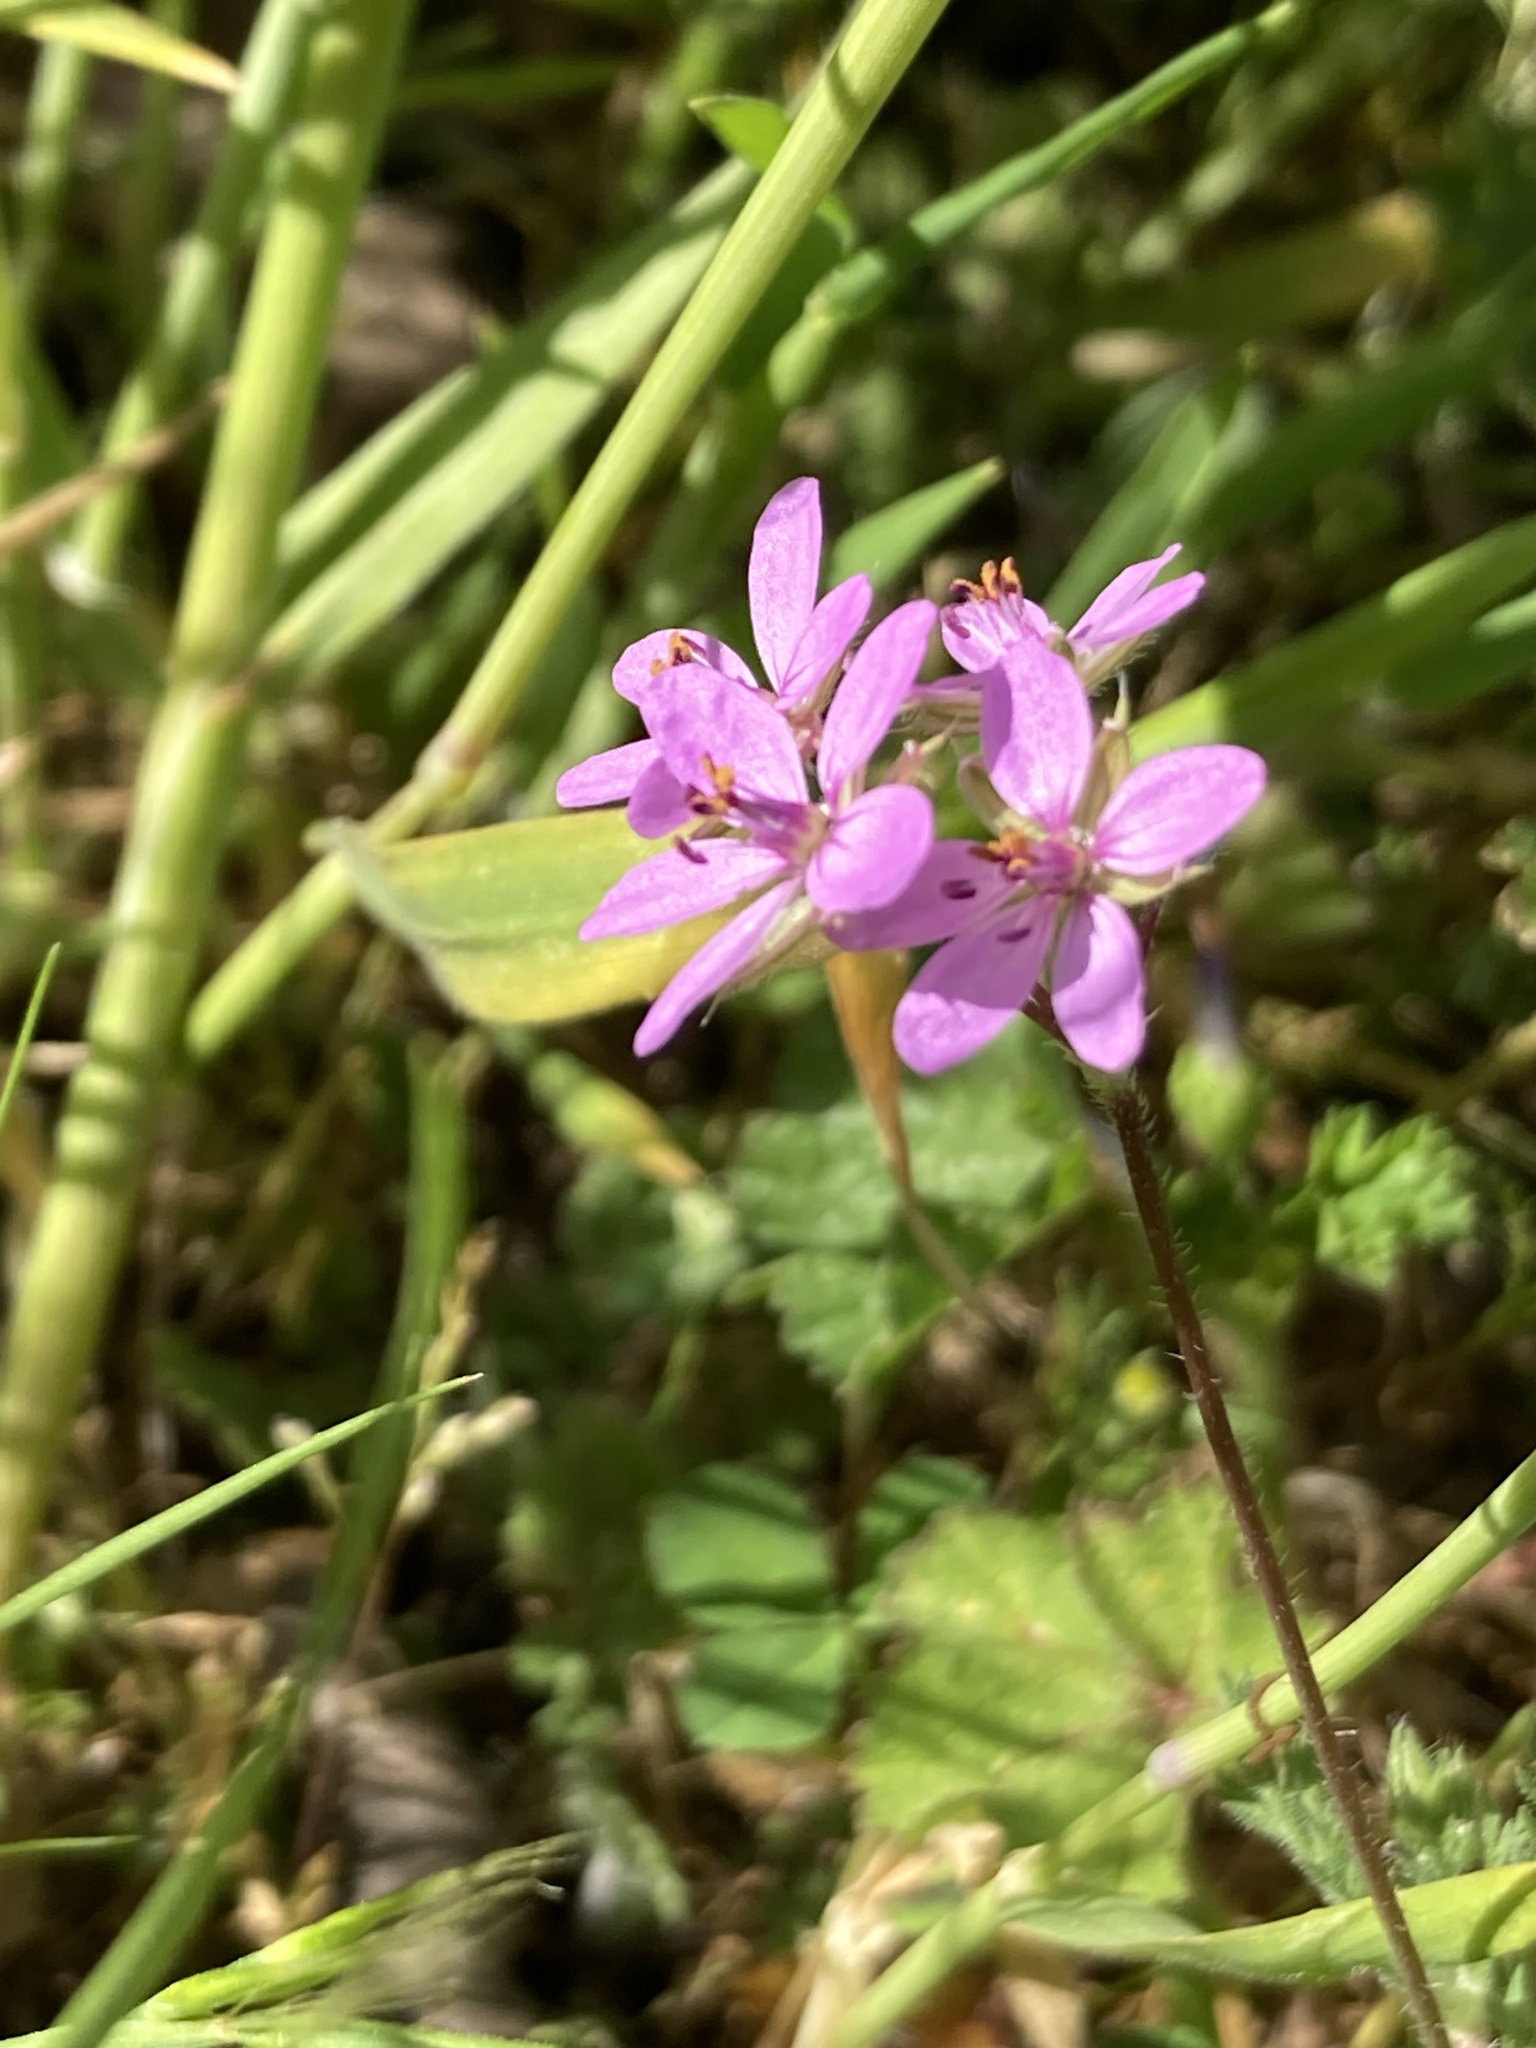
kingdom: Plantae
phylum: Tracheophyta
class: Magnoliopsida
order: Geraniales
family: Geraniaceae
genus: Erodium
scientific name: Erodium cicutarium
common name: Common stork's-bill
